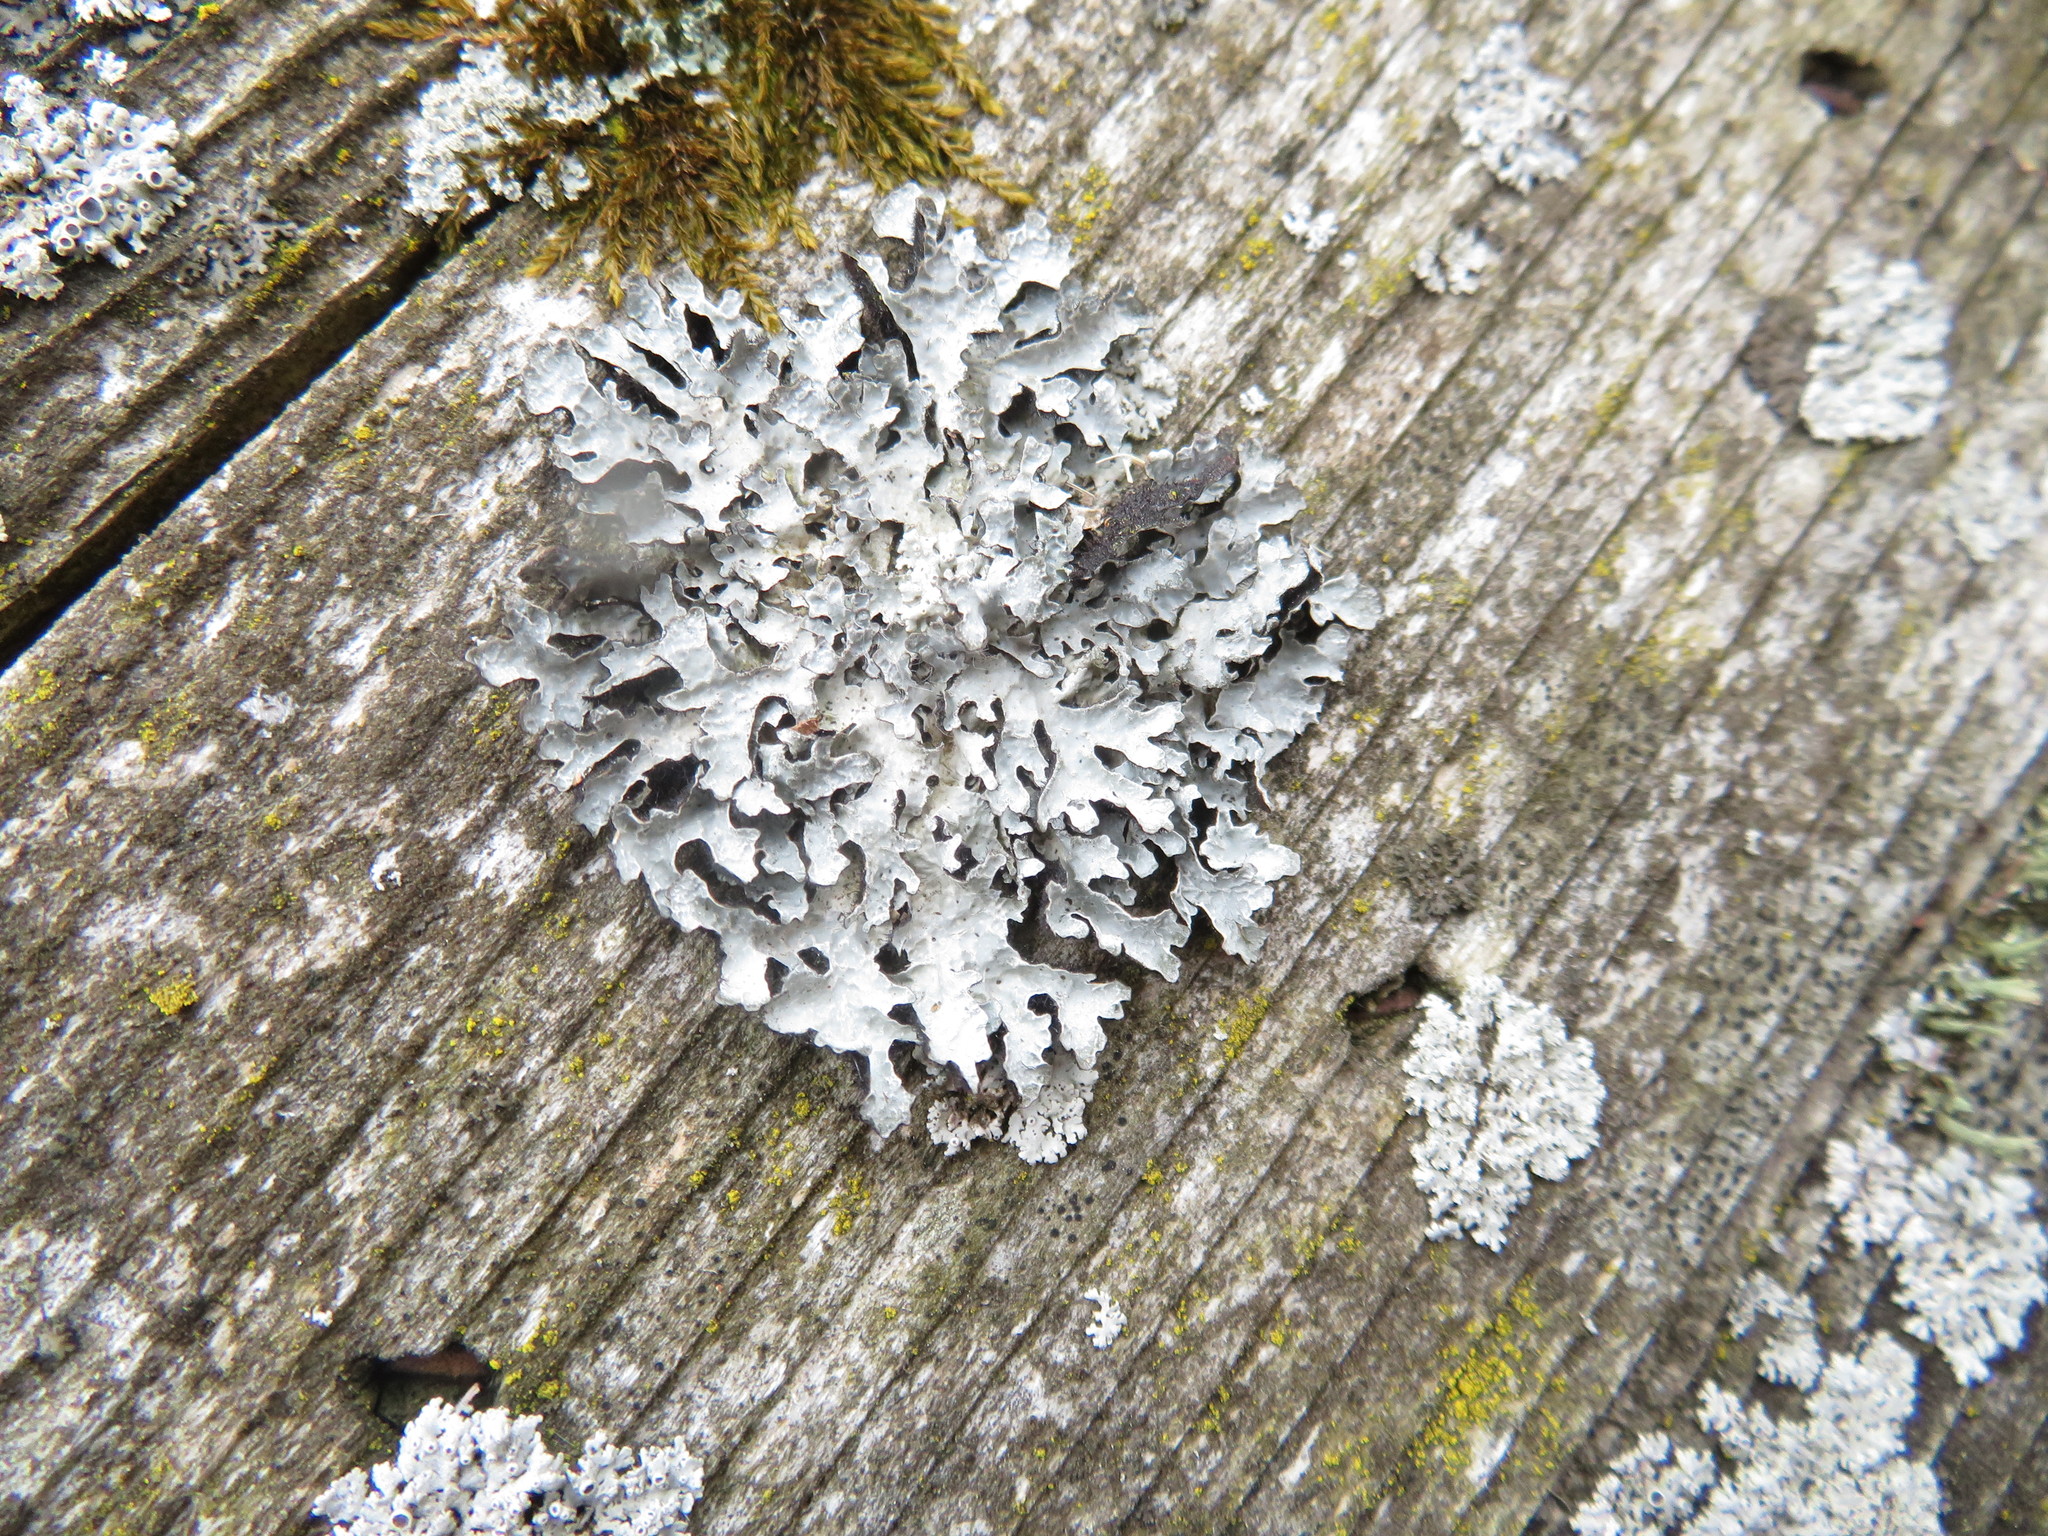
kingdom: Fungi
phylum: Ascomycota
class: Lecanoromycetes
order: Lecanorales
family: Parmeliaceae
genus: Parmelia
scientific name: Parmelia sulcata
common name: Netted shield lichen
